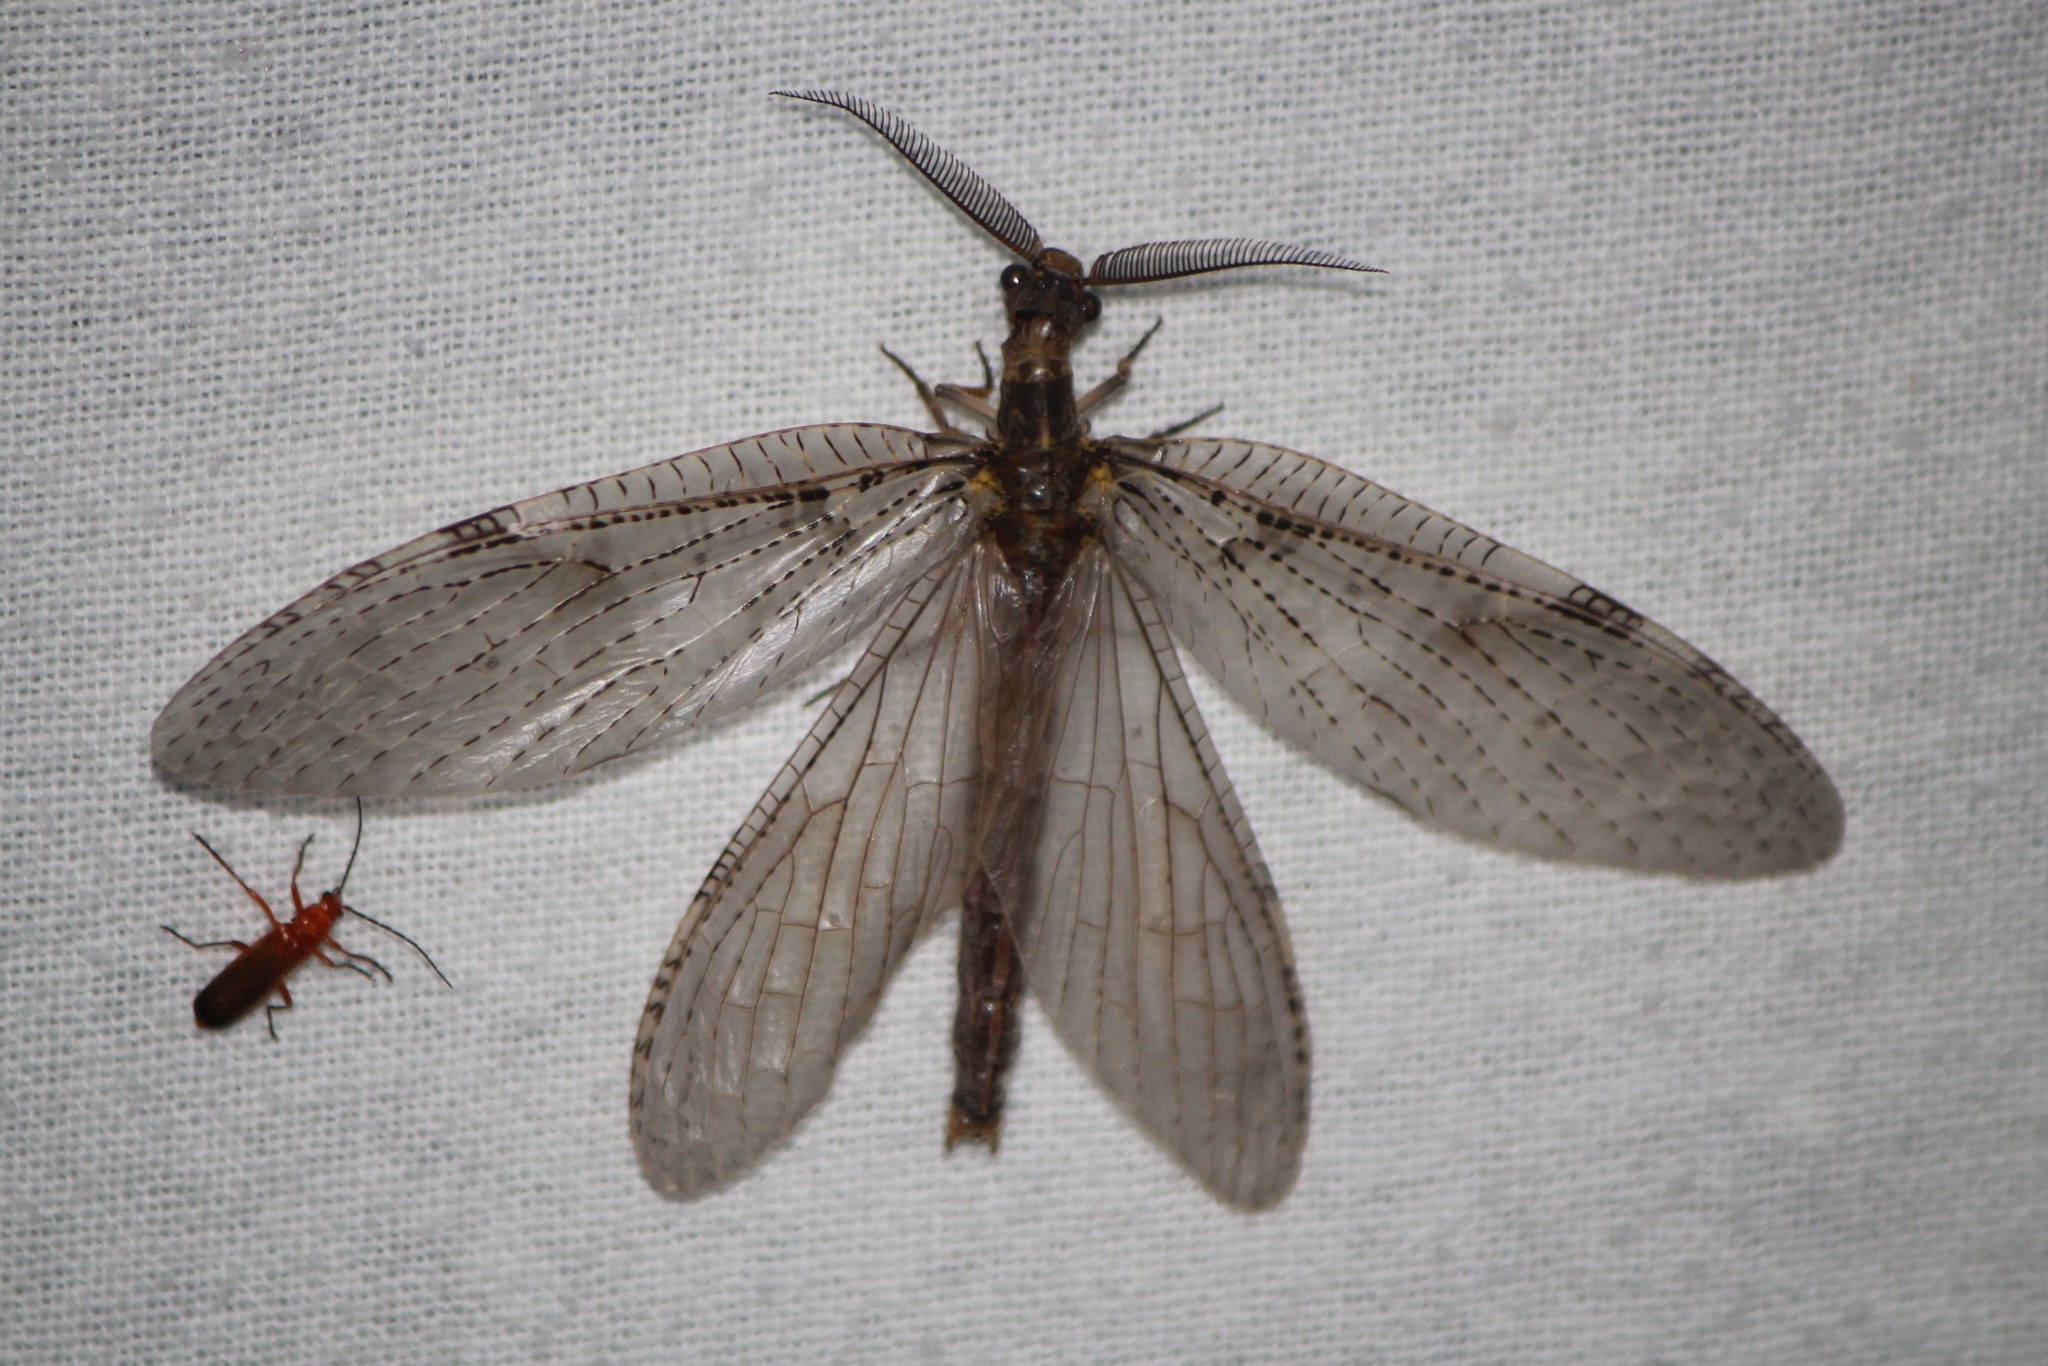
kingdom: Animalia
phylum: Arthropoda
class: Insecta
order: Megaloptera
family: Corydalidae
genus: Chauliodes
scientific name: Chauliodes pectinicornis
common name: Summer fishfly
